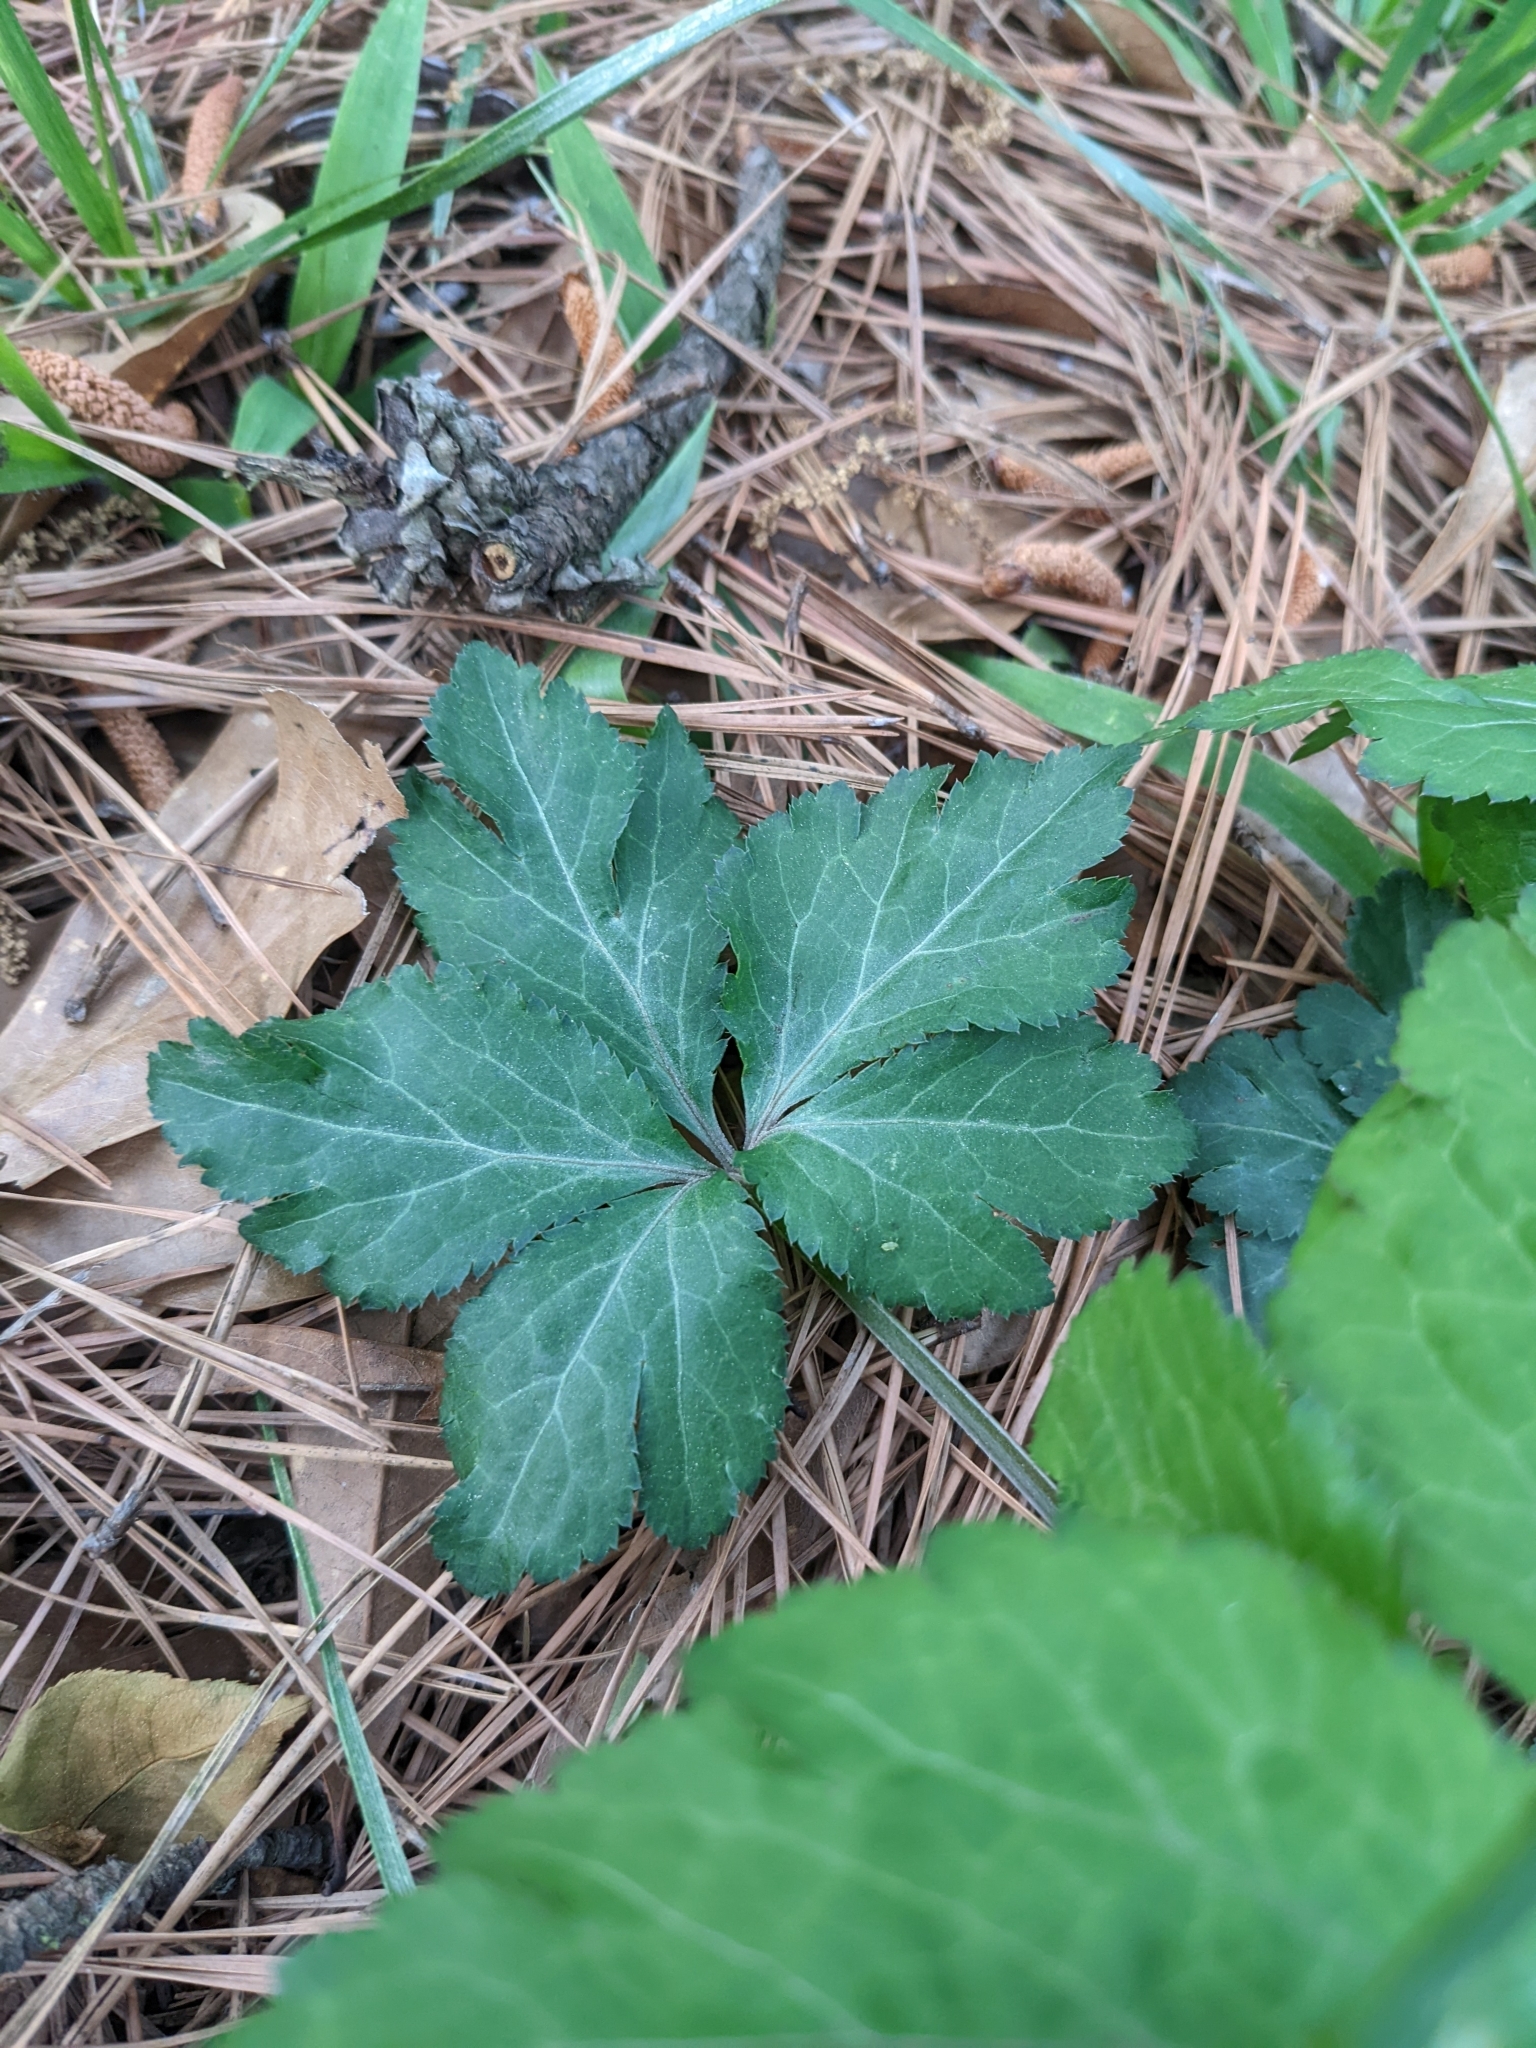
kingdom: Plantae
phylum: Tracheophyta
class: Magnoliopsida
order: Apiales
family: Apiaceae
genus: Sanicula
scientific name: Sanicula canadensis
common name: Canada sanicle
